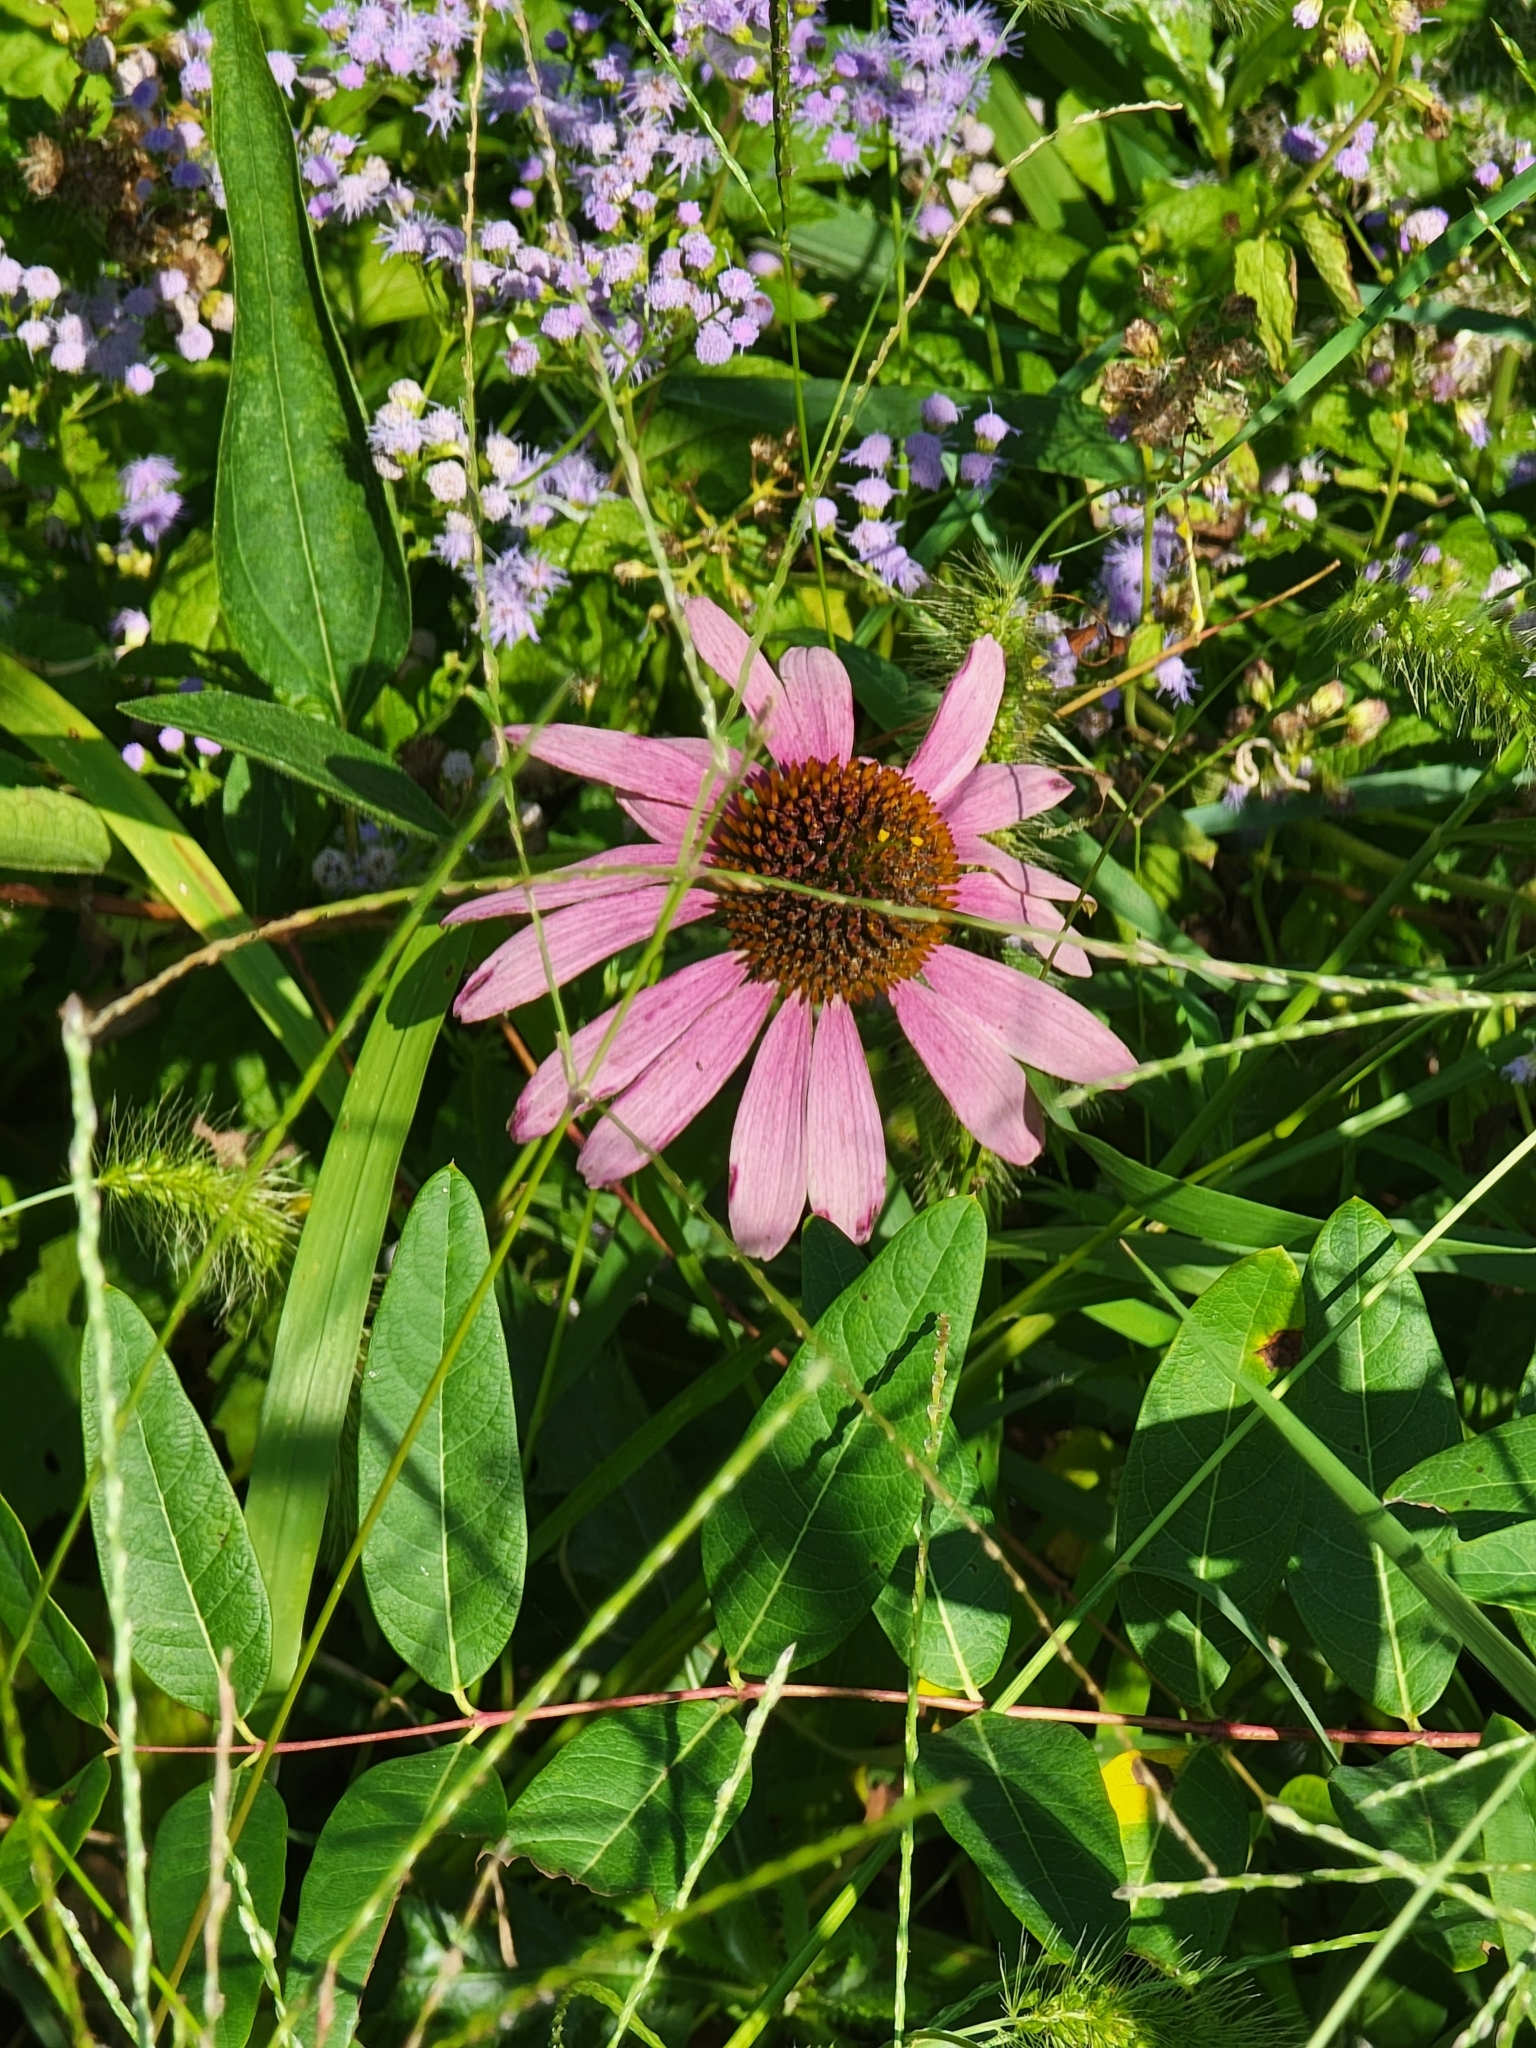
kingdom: Plantae
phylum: Tracheophyta
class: Magnoliopsida
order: Asterales
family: Asteraceae
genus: Echinacea
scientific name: Echinacea purpurea
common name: Broad-leaved purple coneflower
